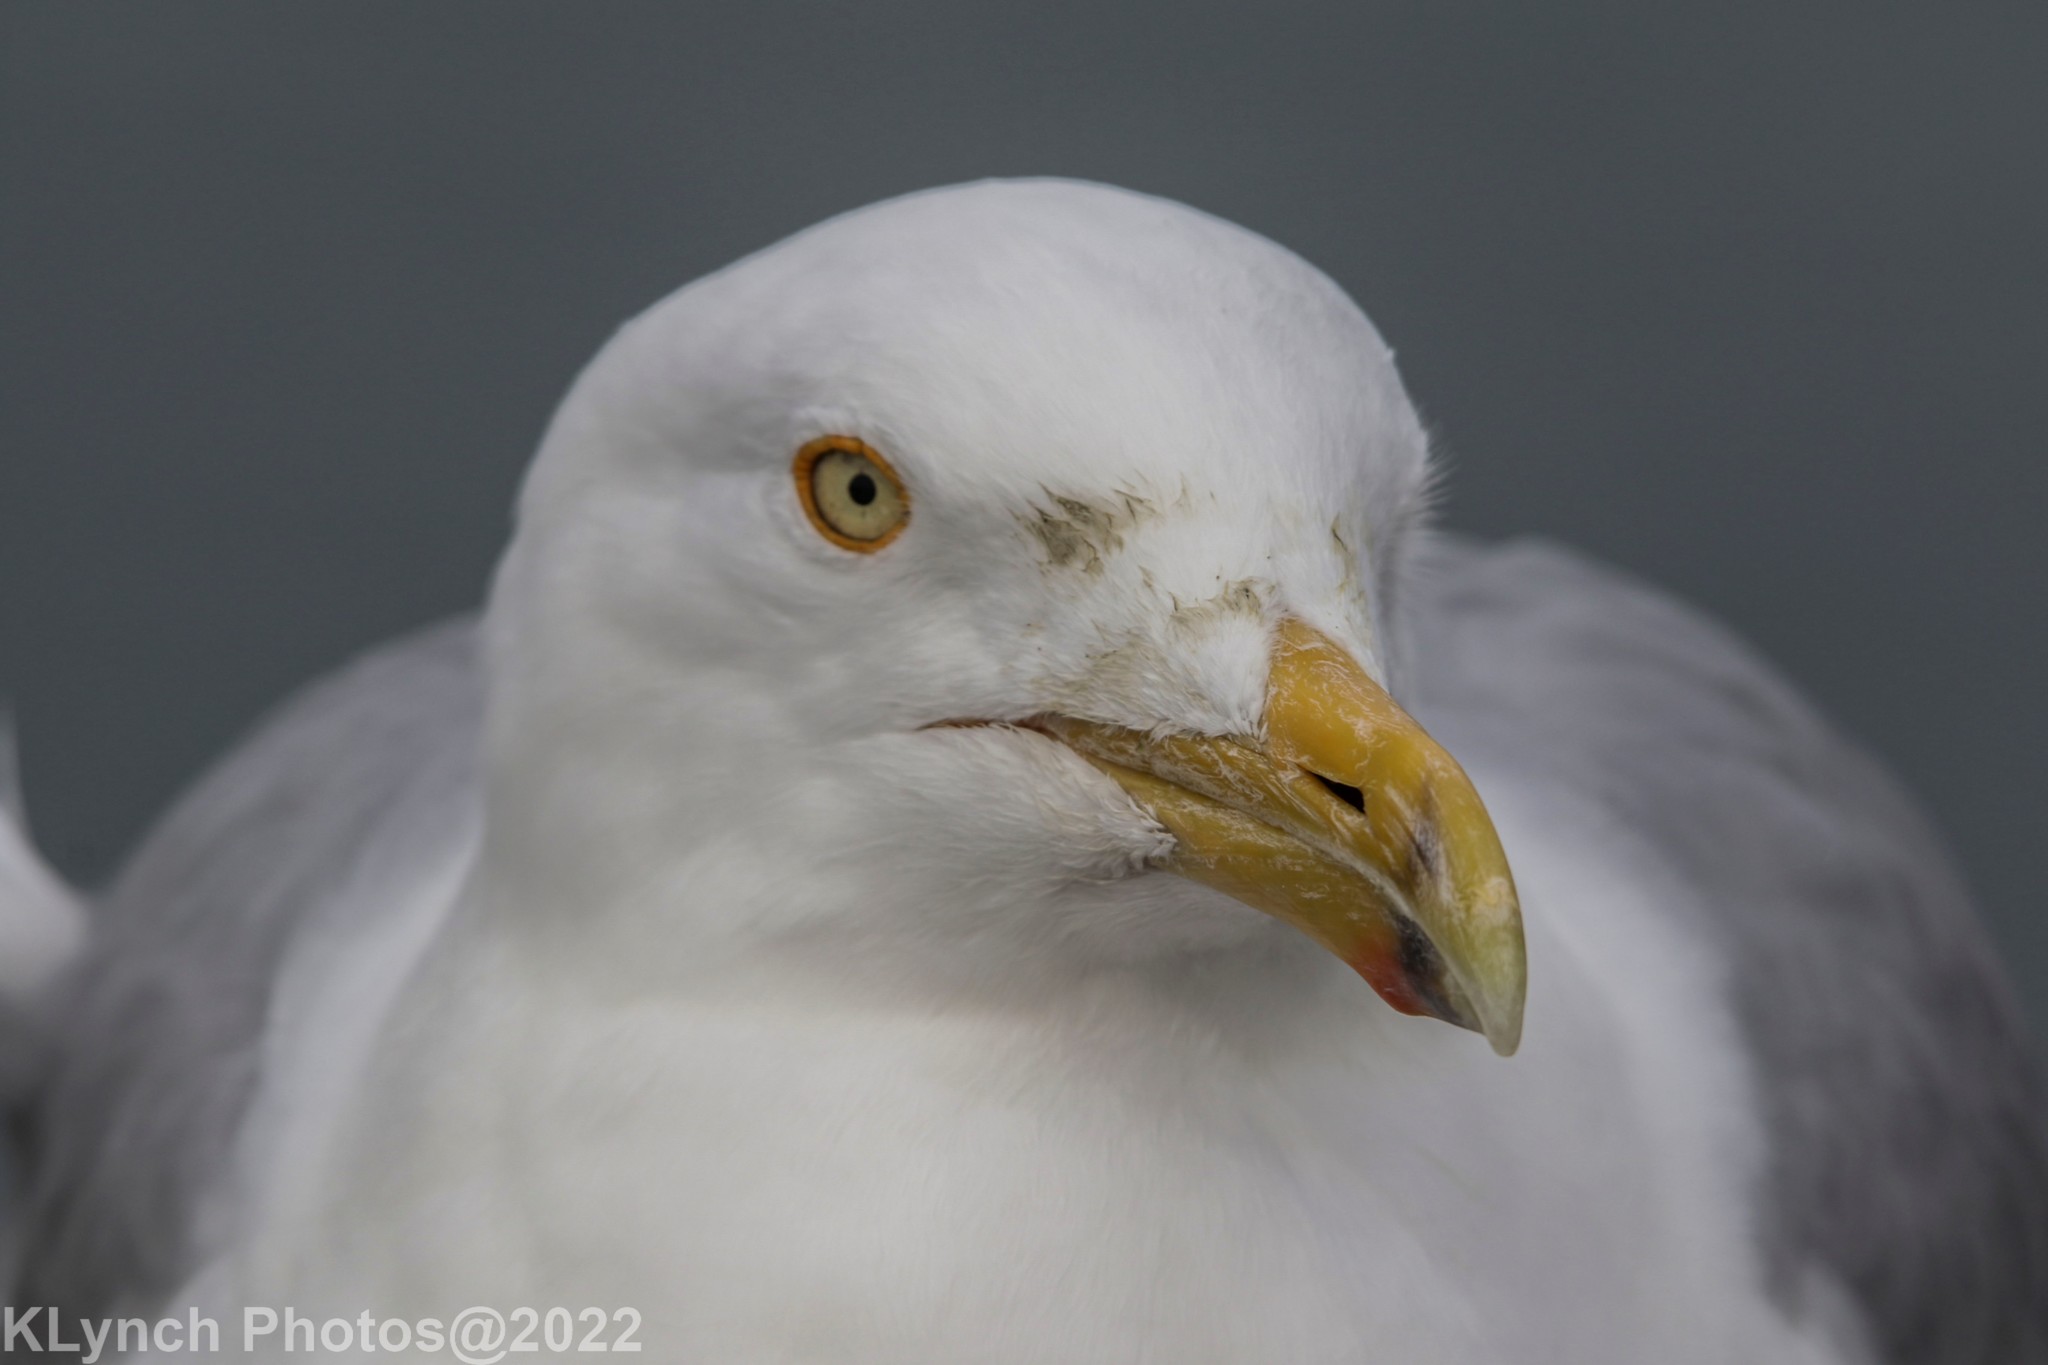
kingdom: Animalia
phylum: Chordata
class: Aves
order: Charadriiformes
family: Laridae
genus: Larus
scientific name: Larus argentatus
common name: Herring gull
